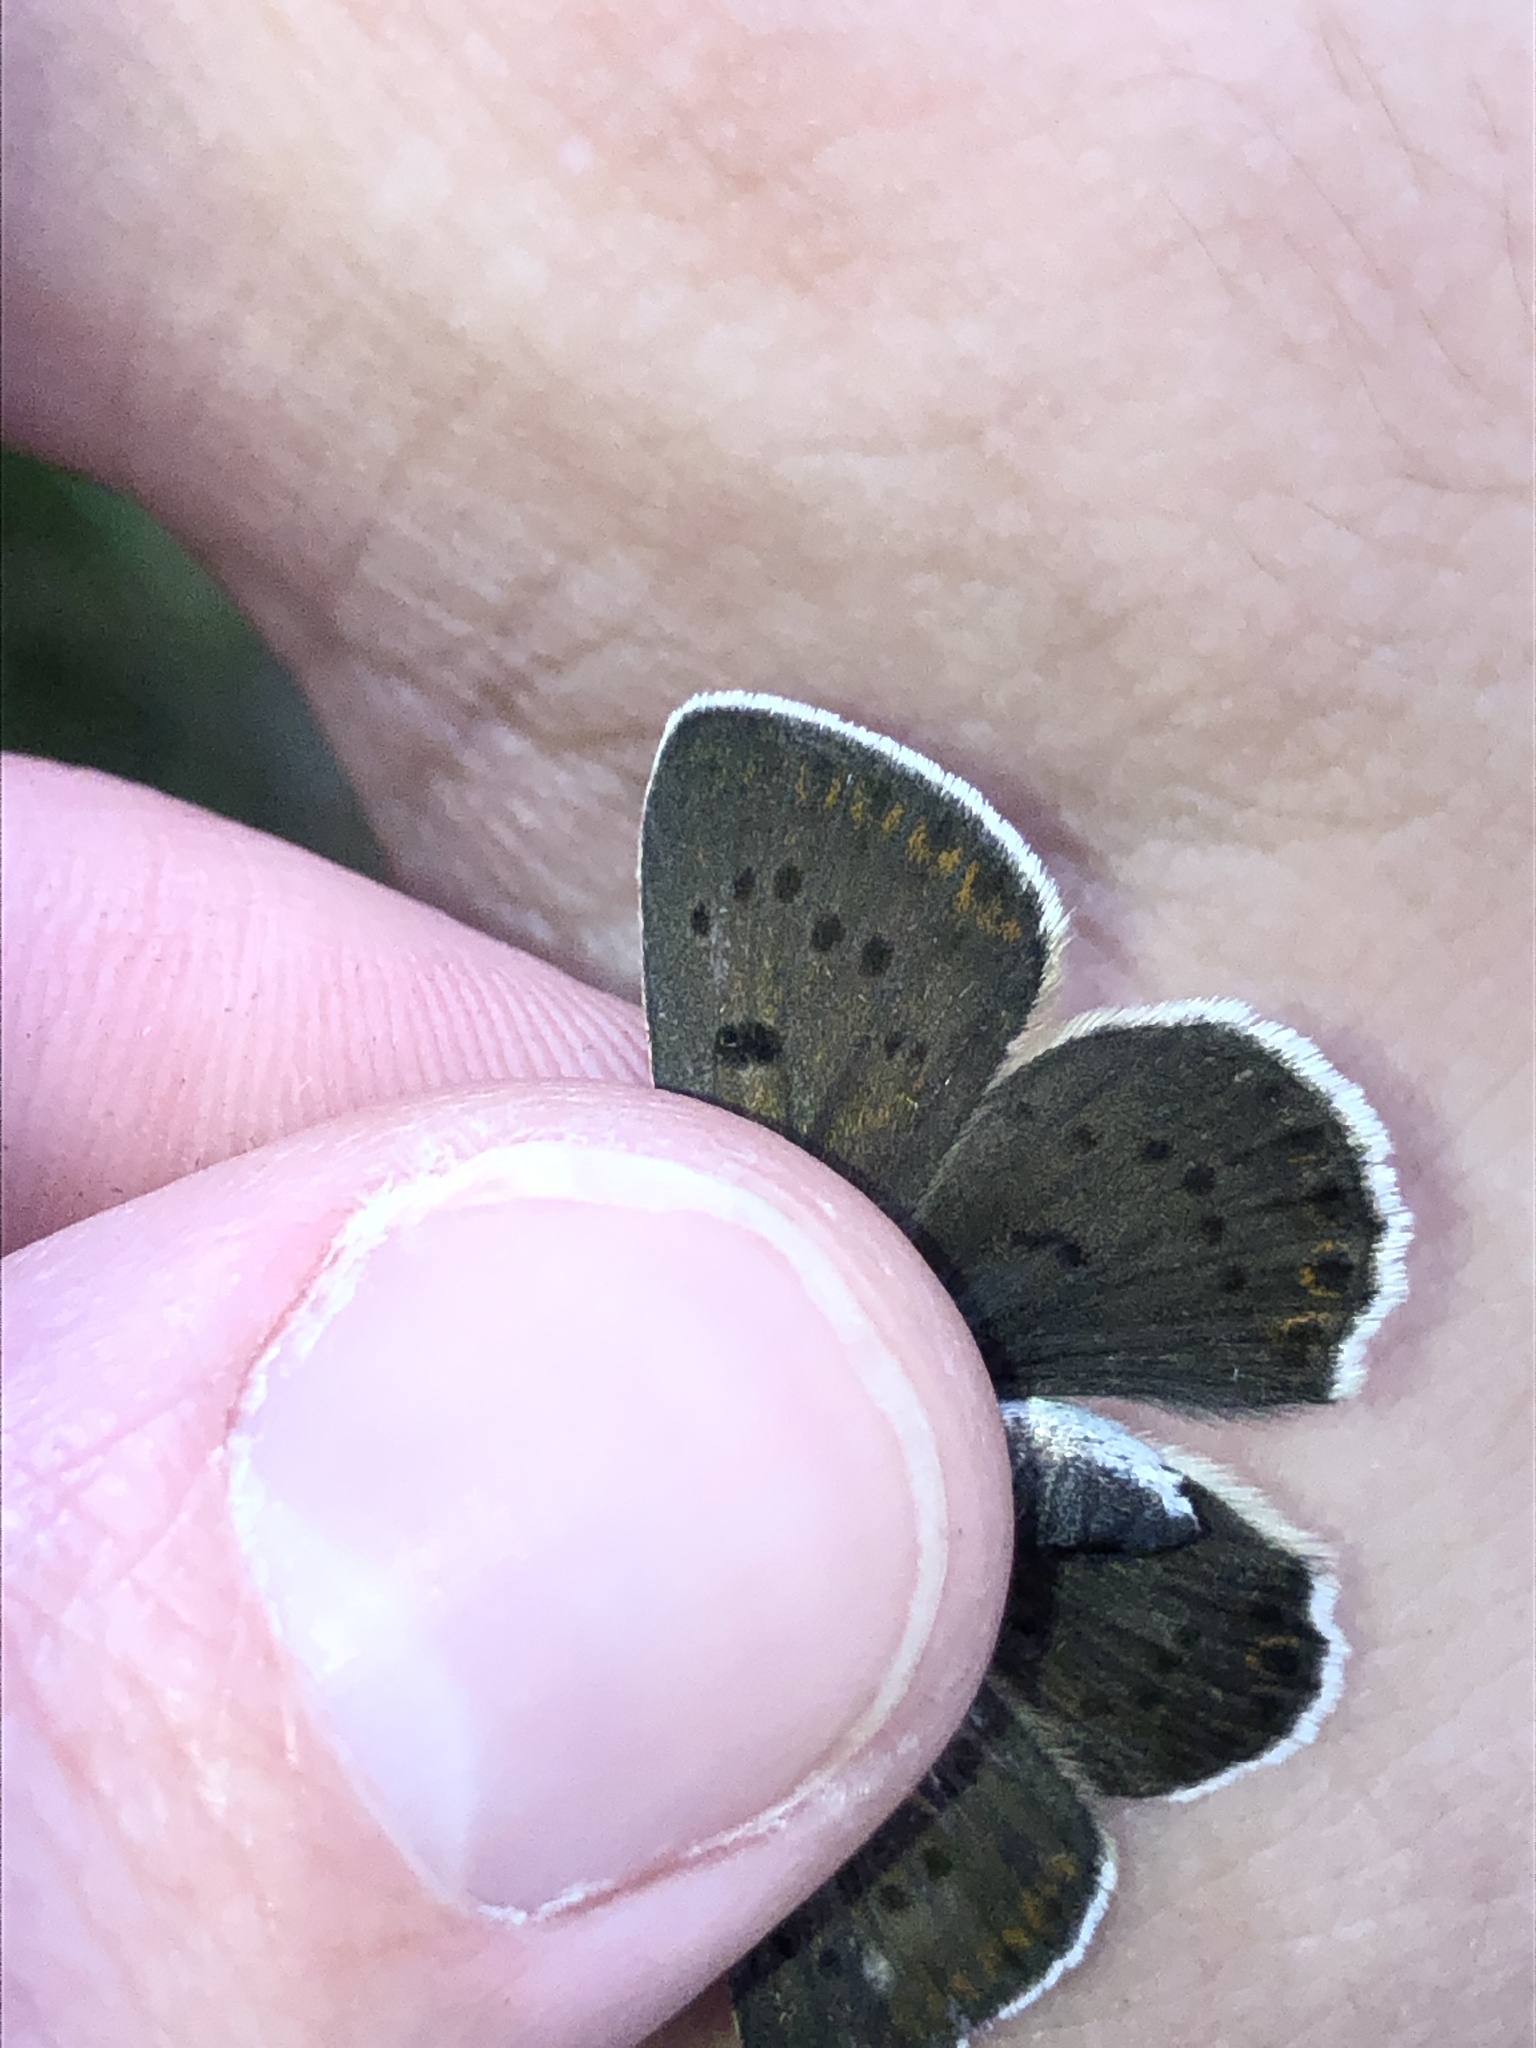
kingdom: Animalia
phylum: Arthropoda
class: Insecta
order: Lepidoptera
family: Lycaenidae
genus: Loweia
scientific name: Loweia tityrus
